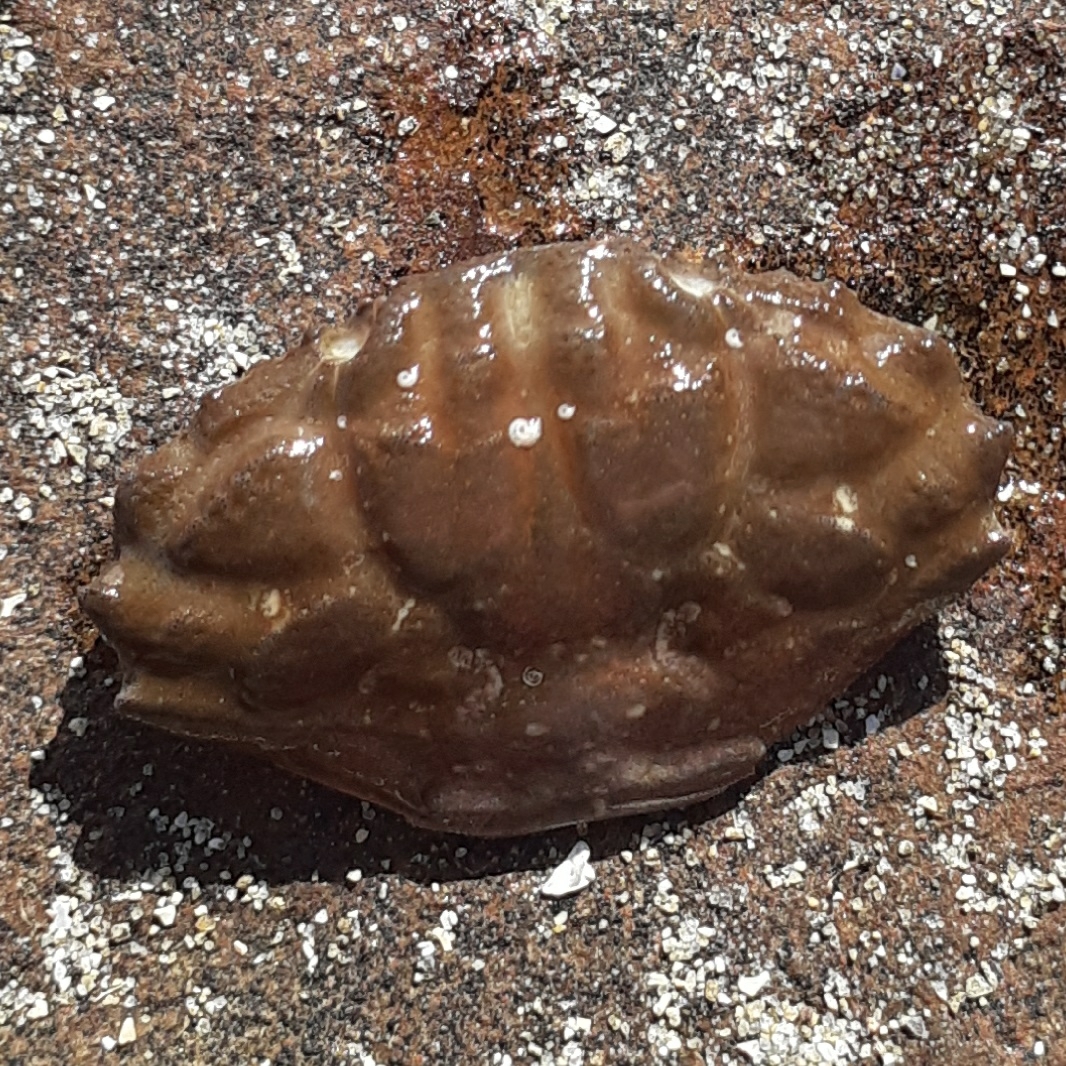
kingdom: Animalia
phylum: Arthropoda
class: Malacostraca
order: Decapoda
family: Xanthidae
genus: Xantho
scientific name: Xantho hydrophilus
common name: Montagu's crab
